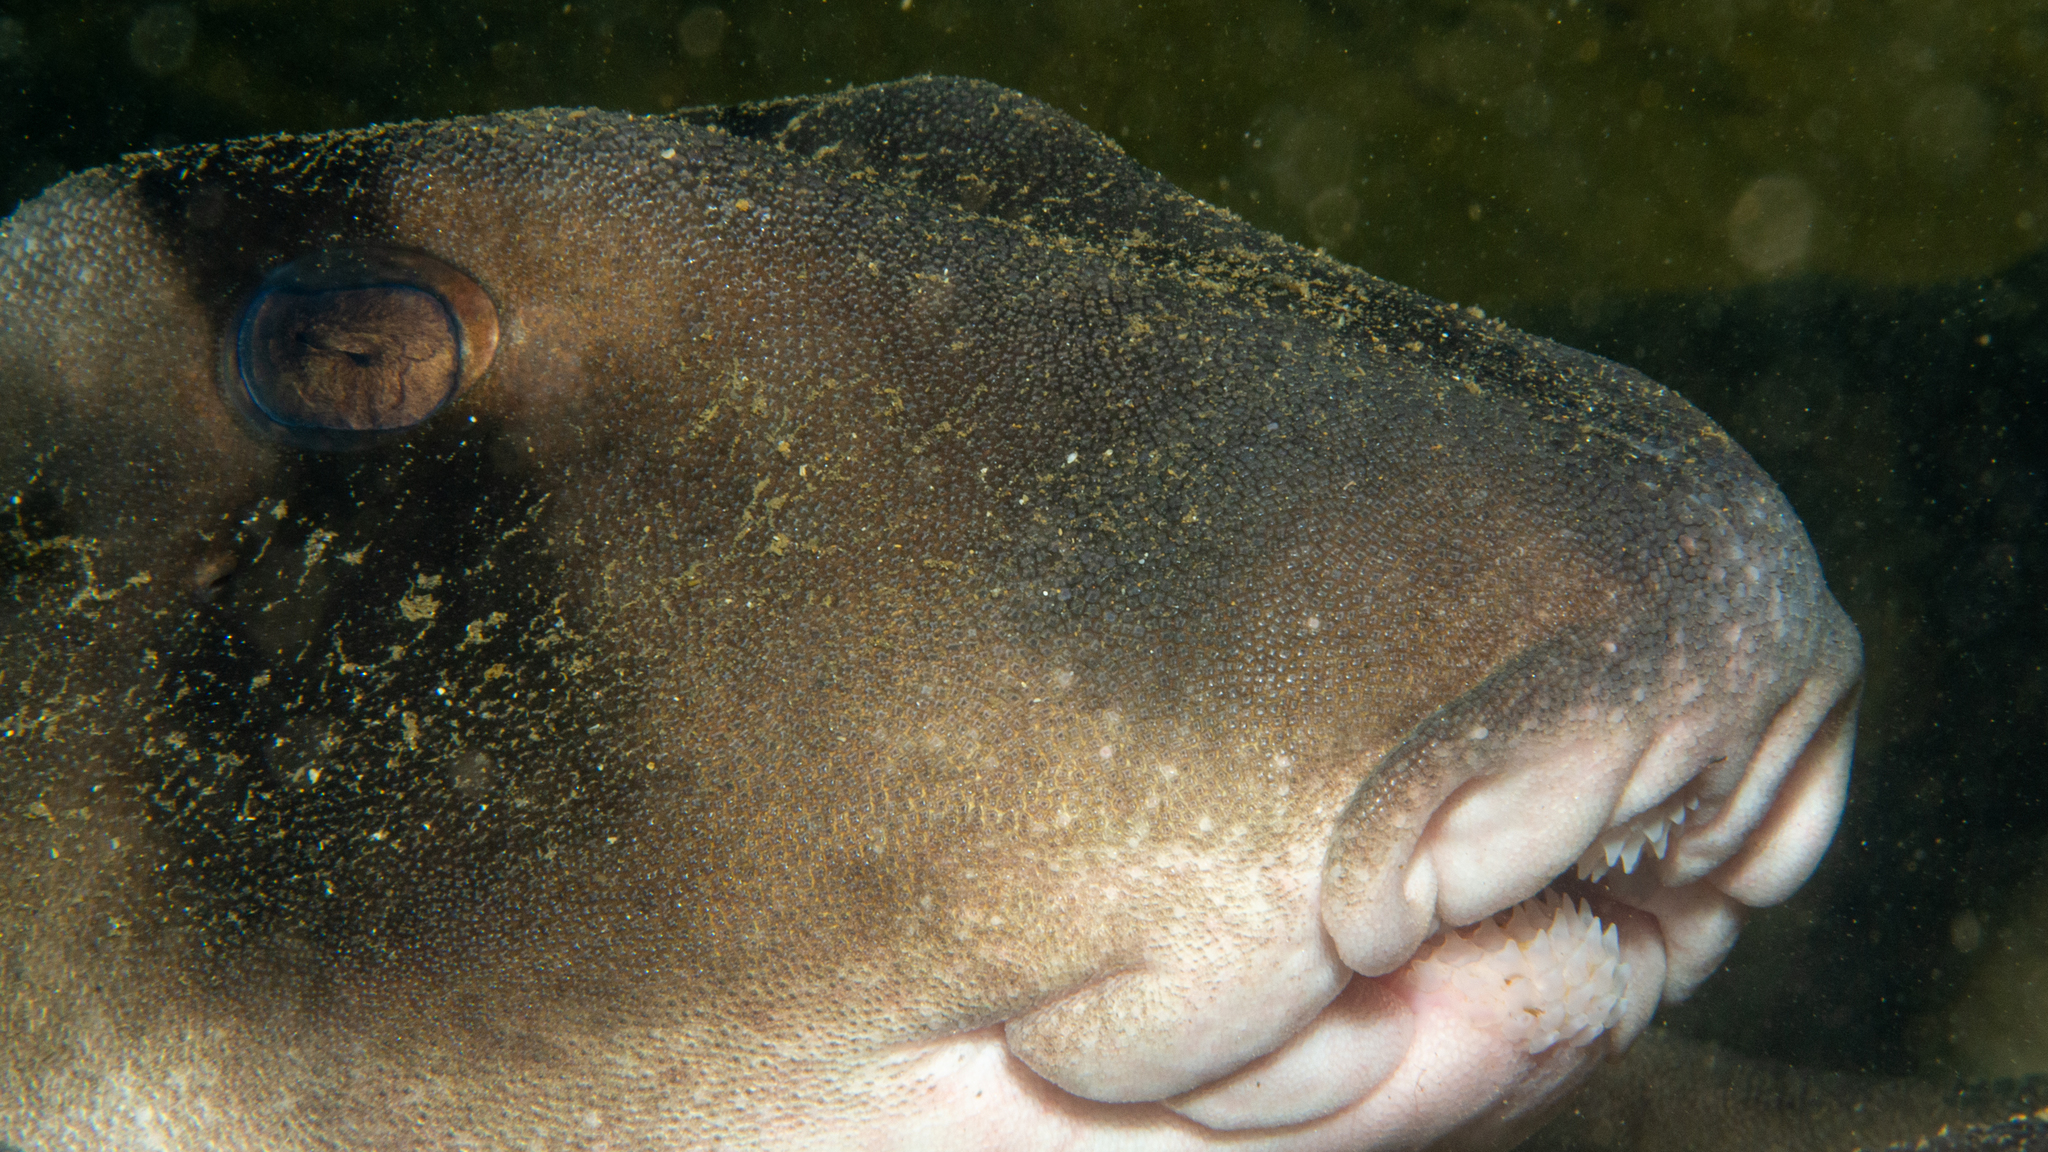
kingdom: Animalia
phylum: Chordata
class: Elasmobranchii
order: Heterodontiformes
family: Heterodontidae
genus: Heterodontus
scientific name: Heterodontus portusjacksoni
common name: Port jackson shark
